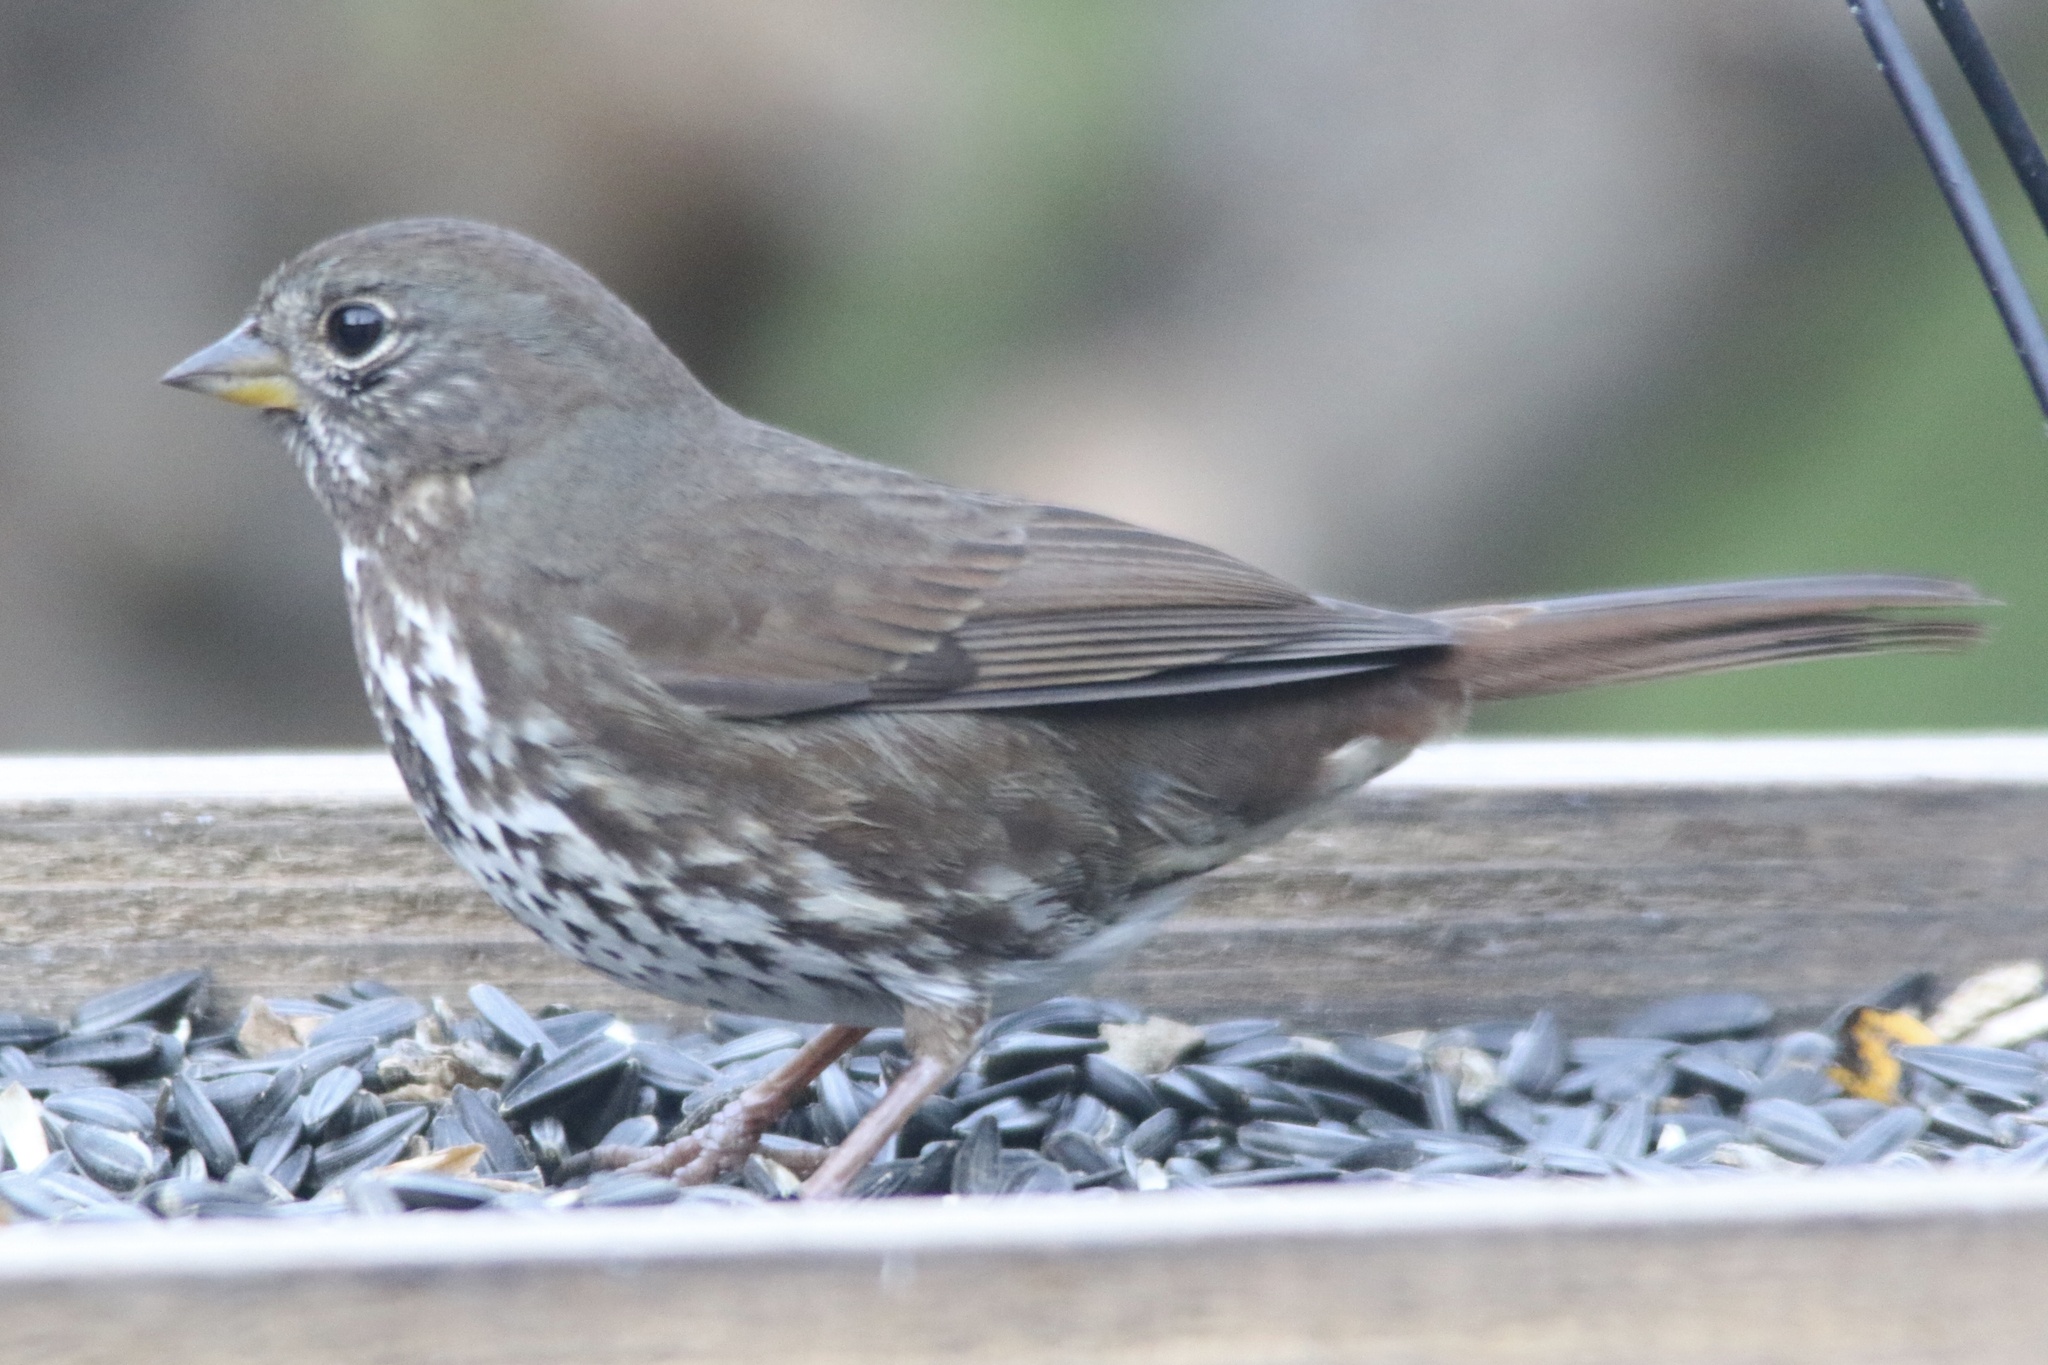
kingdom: Animalia
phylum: Chordata
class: Aves
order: Passeriformes
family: Passerellidae
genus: Passerella
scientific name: Passerella iliaca
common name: Fox sparrow
